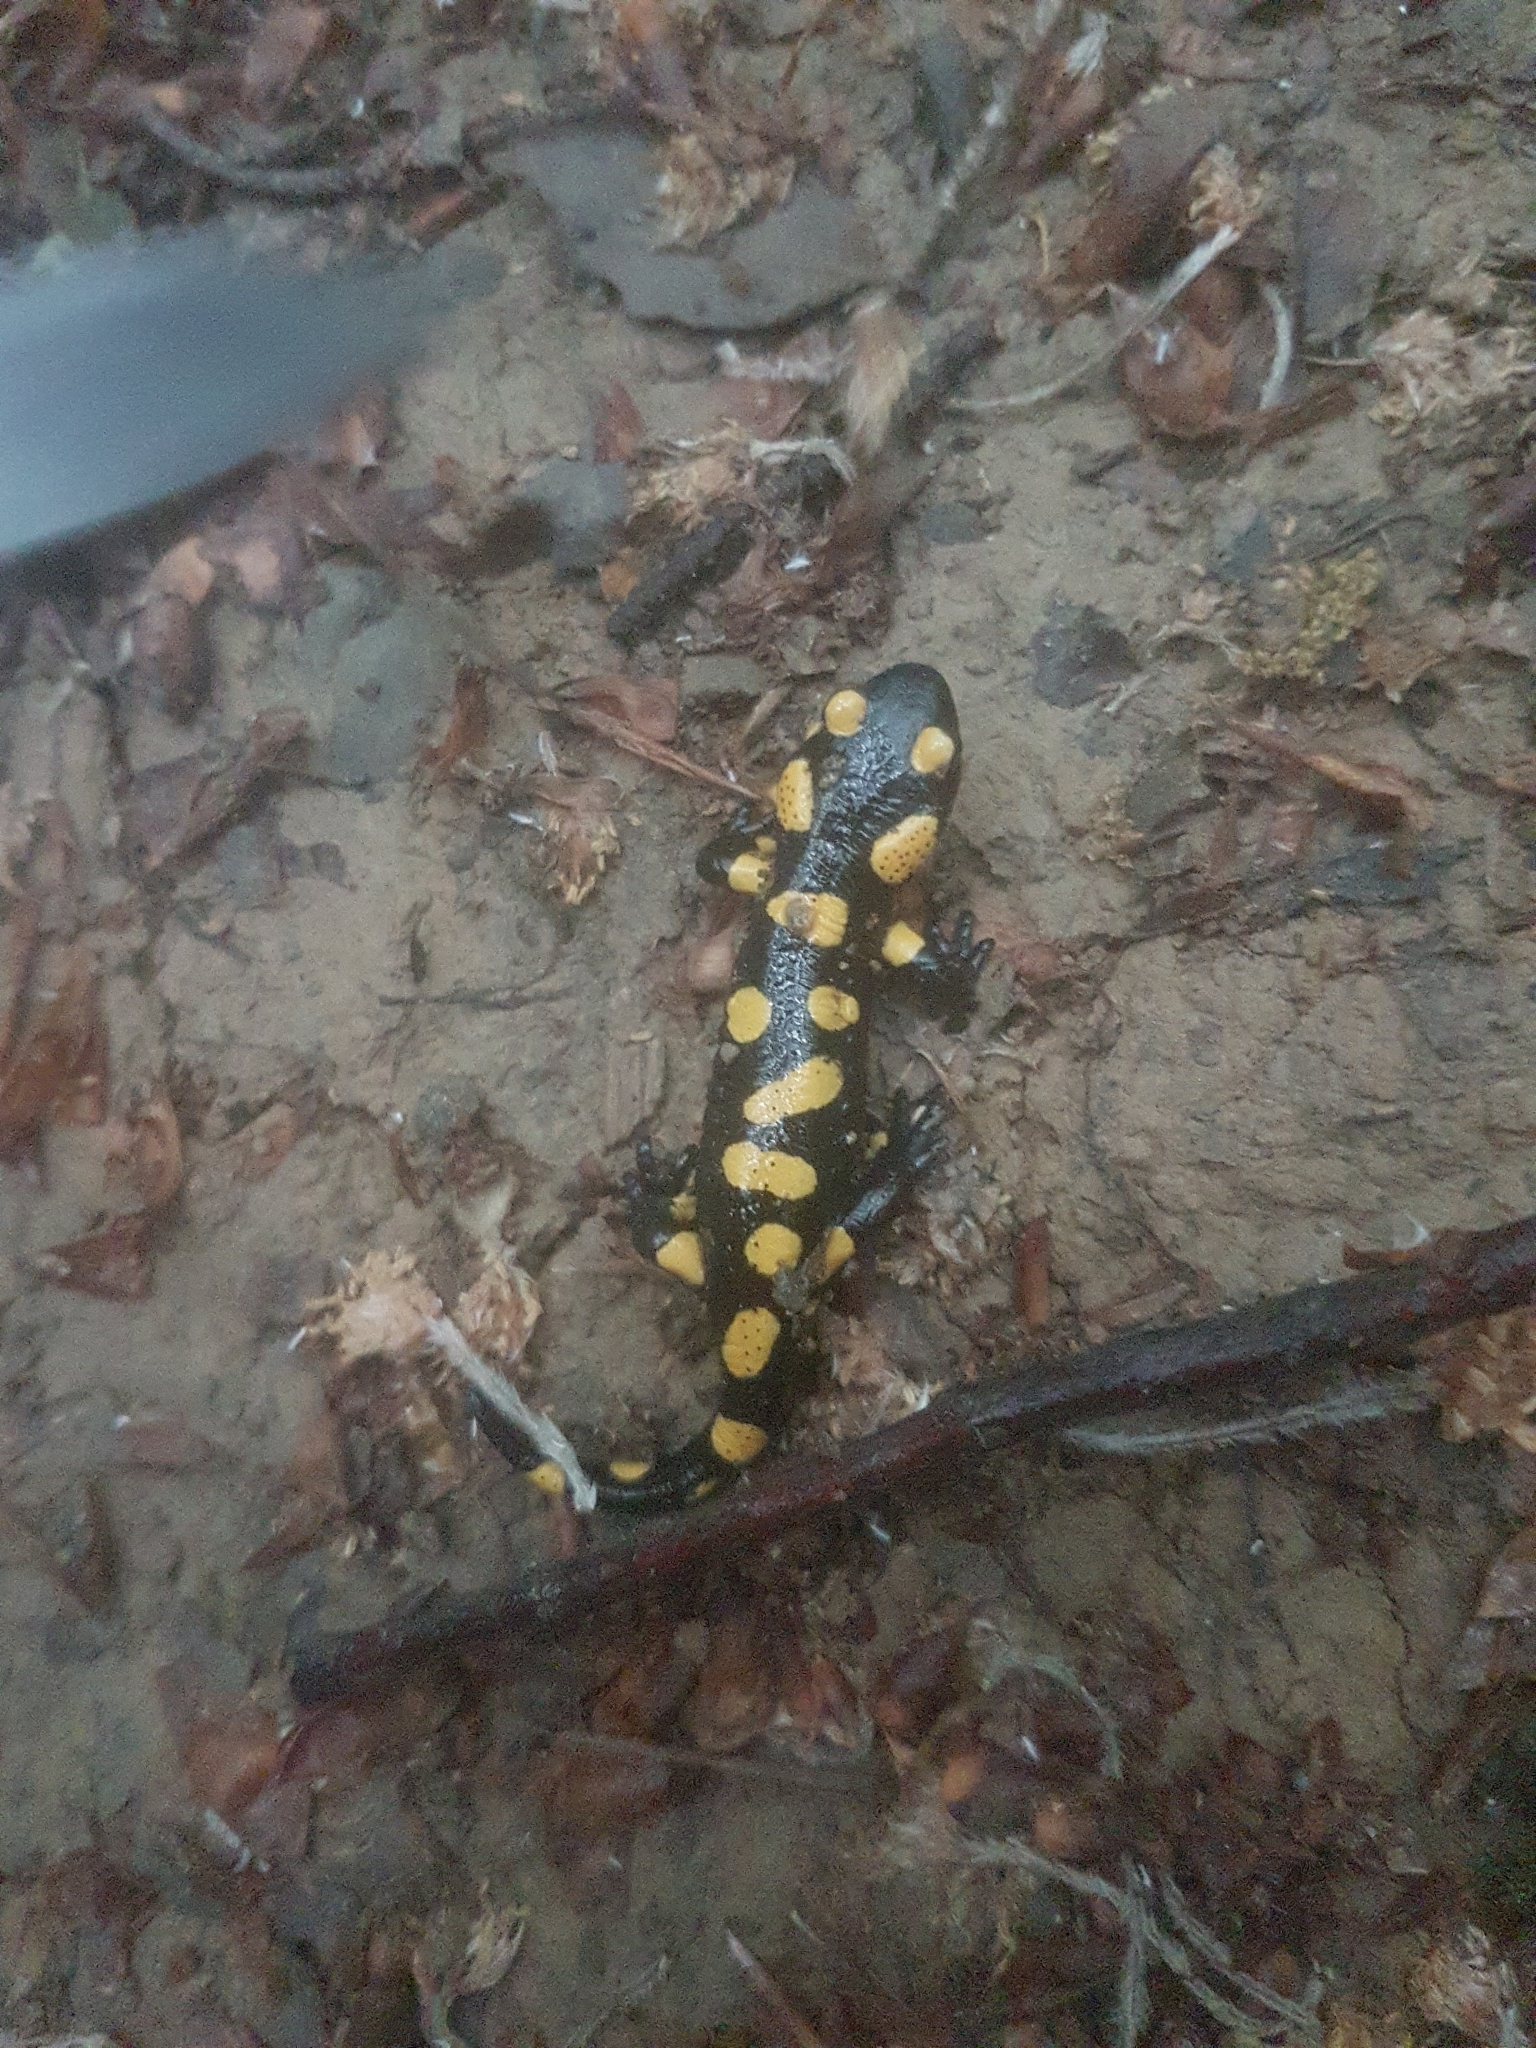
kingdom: Animalia
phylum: Chordata
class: Amphibia
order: Caudata
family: Salamandridae
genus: Salamandra
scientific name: Salamandra salamandra
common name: Fire salamander
